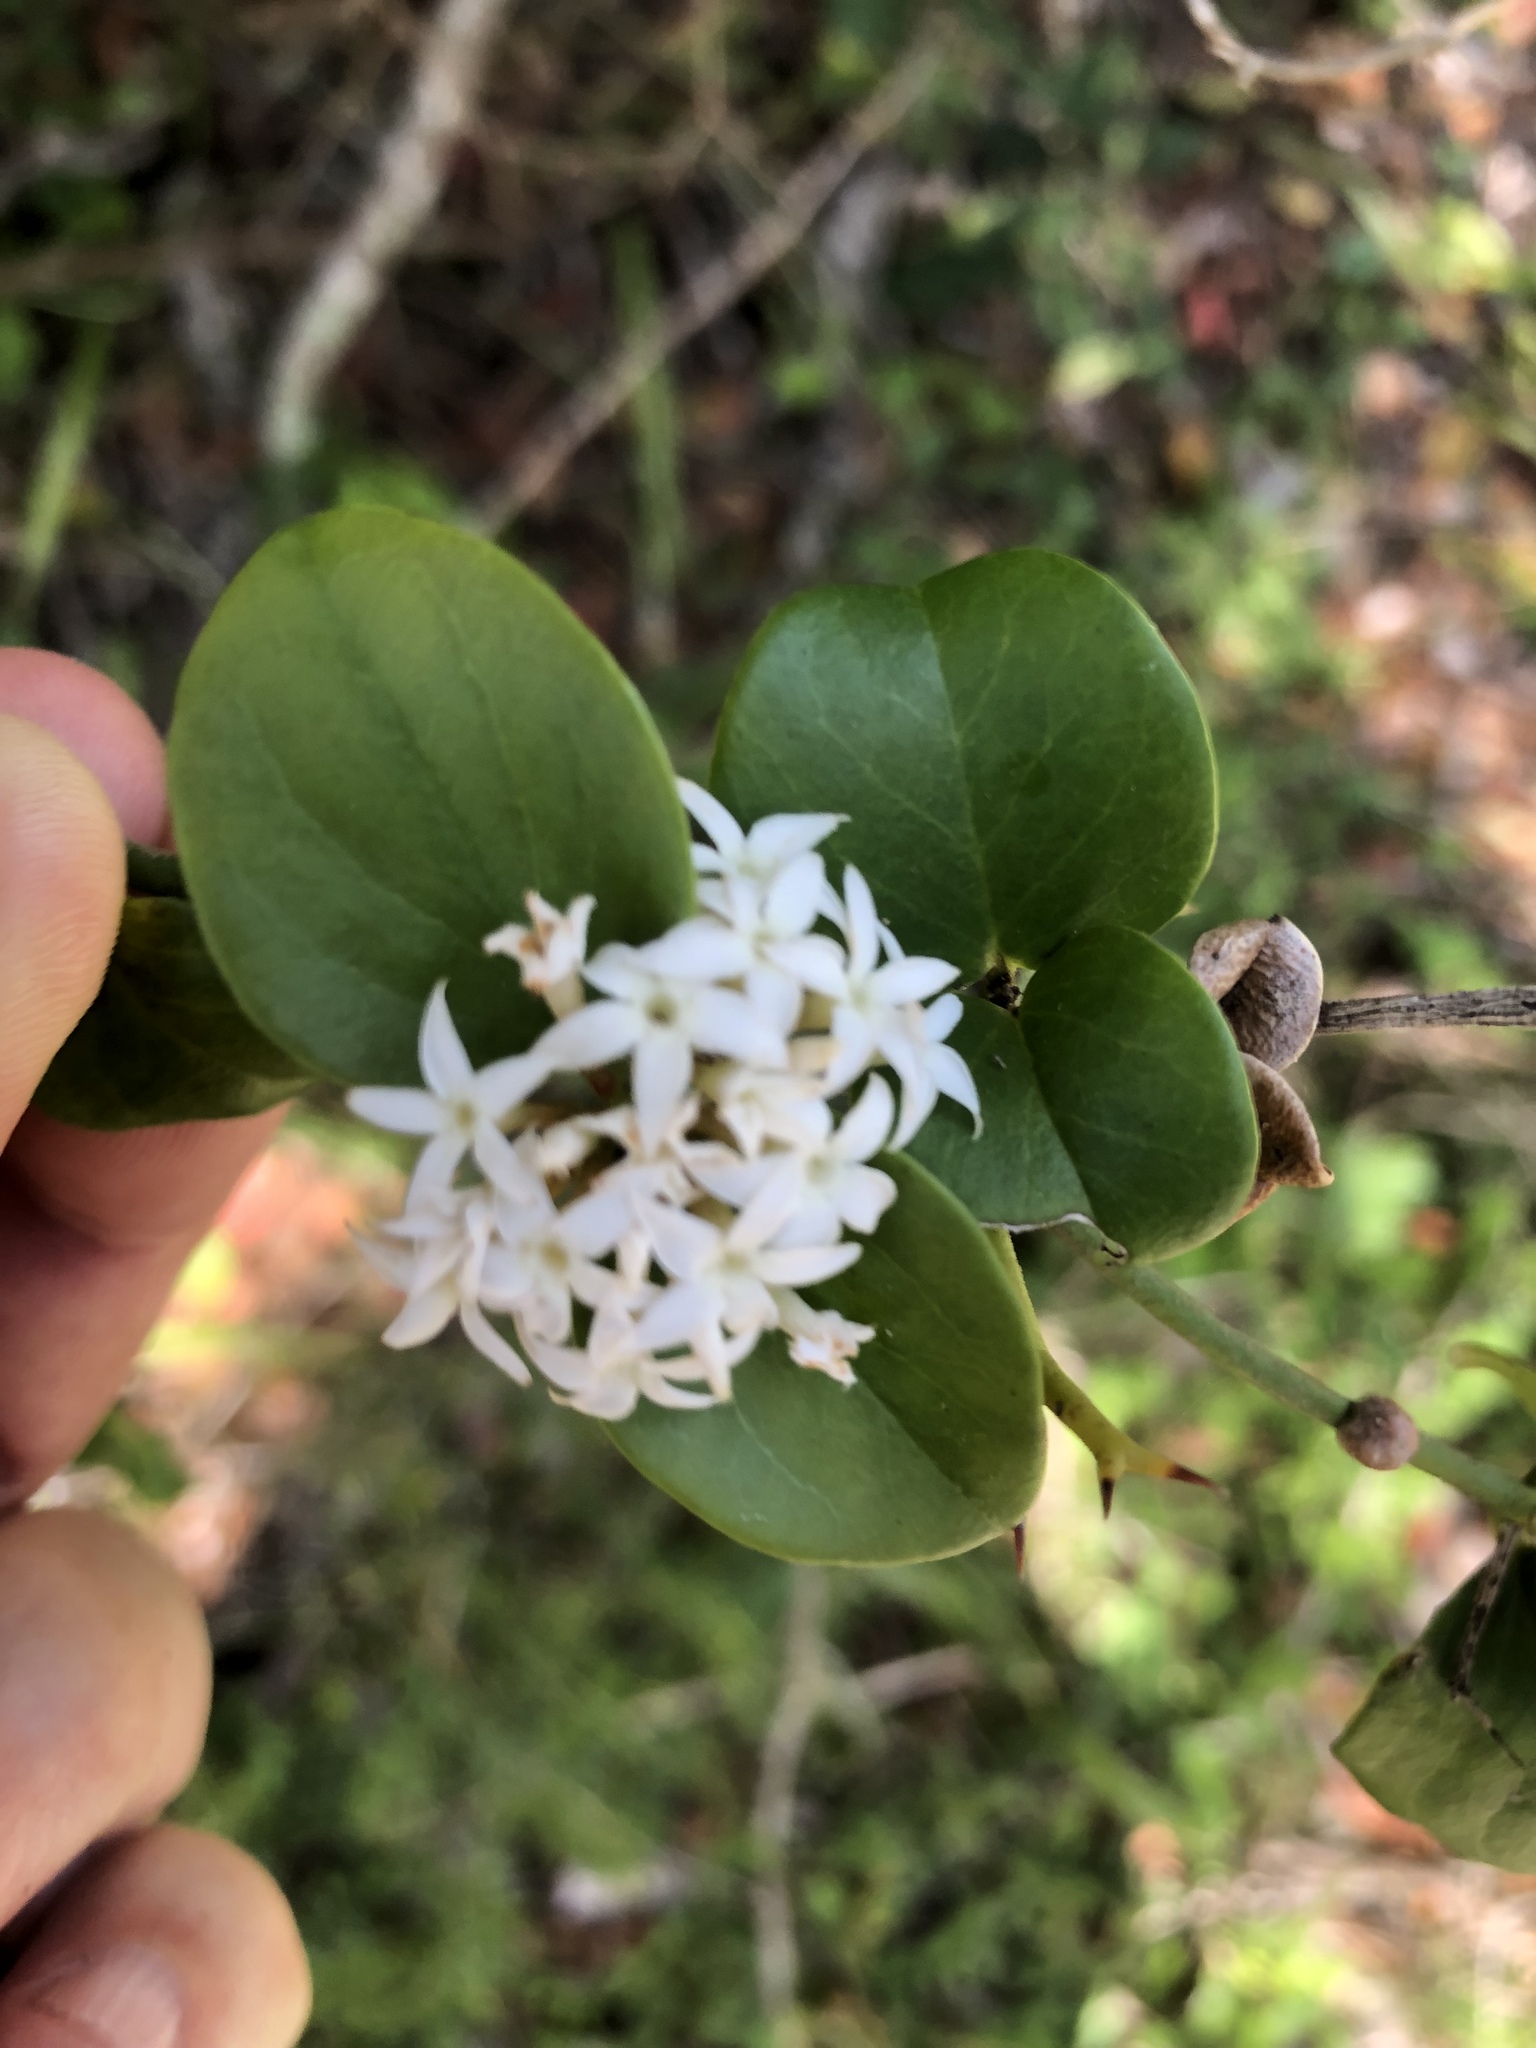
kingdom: Plantae
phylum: Tracheophyta
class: Magnoliopsida
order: Gentianales
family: Apocynaceae
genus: Carissa
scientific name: Carissa bispinosa
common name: Forest num-num
